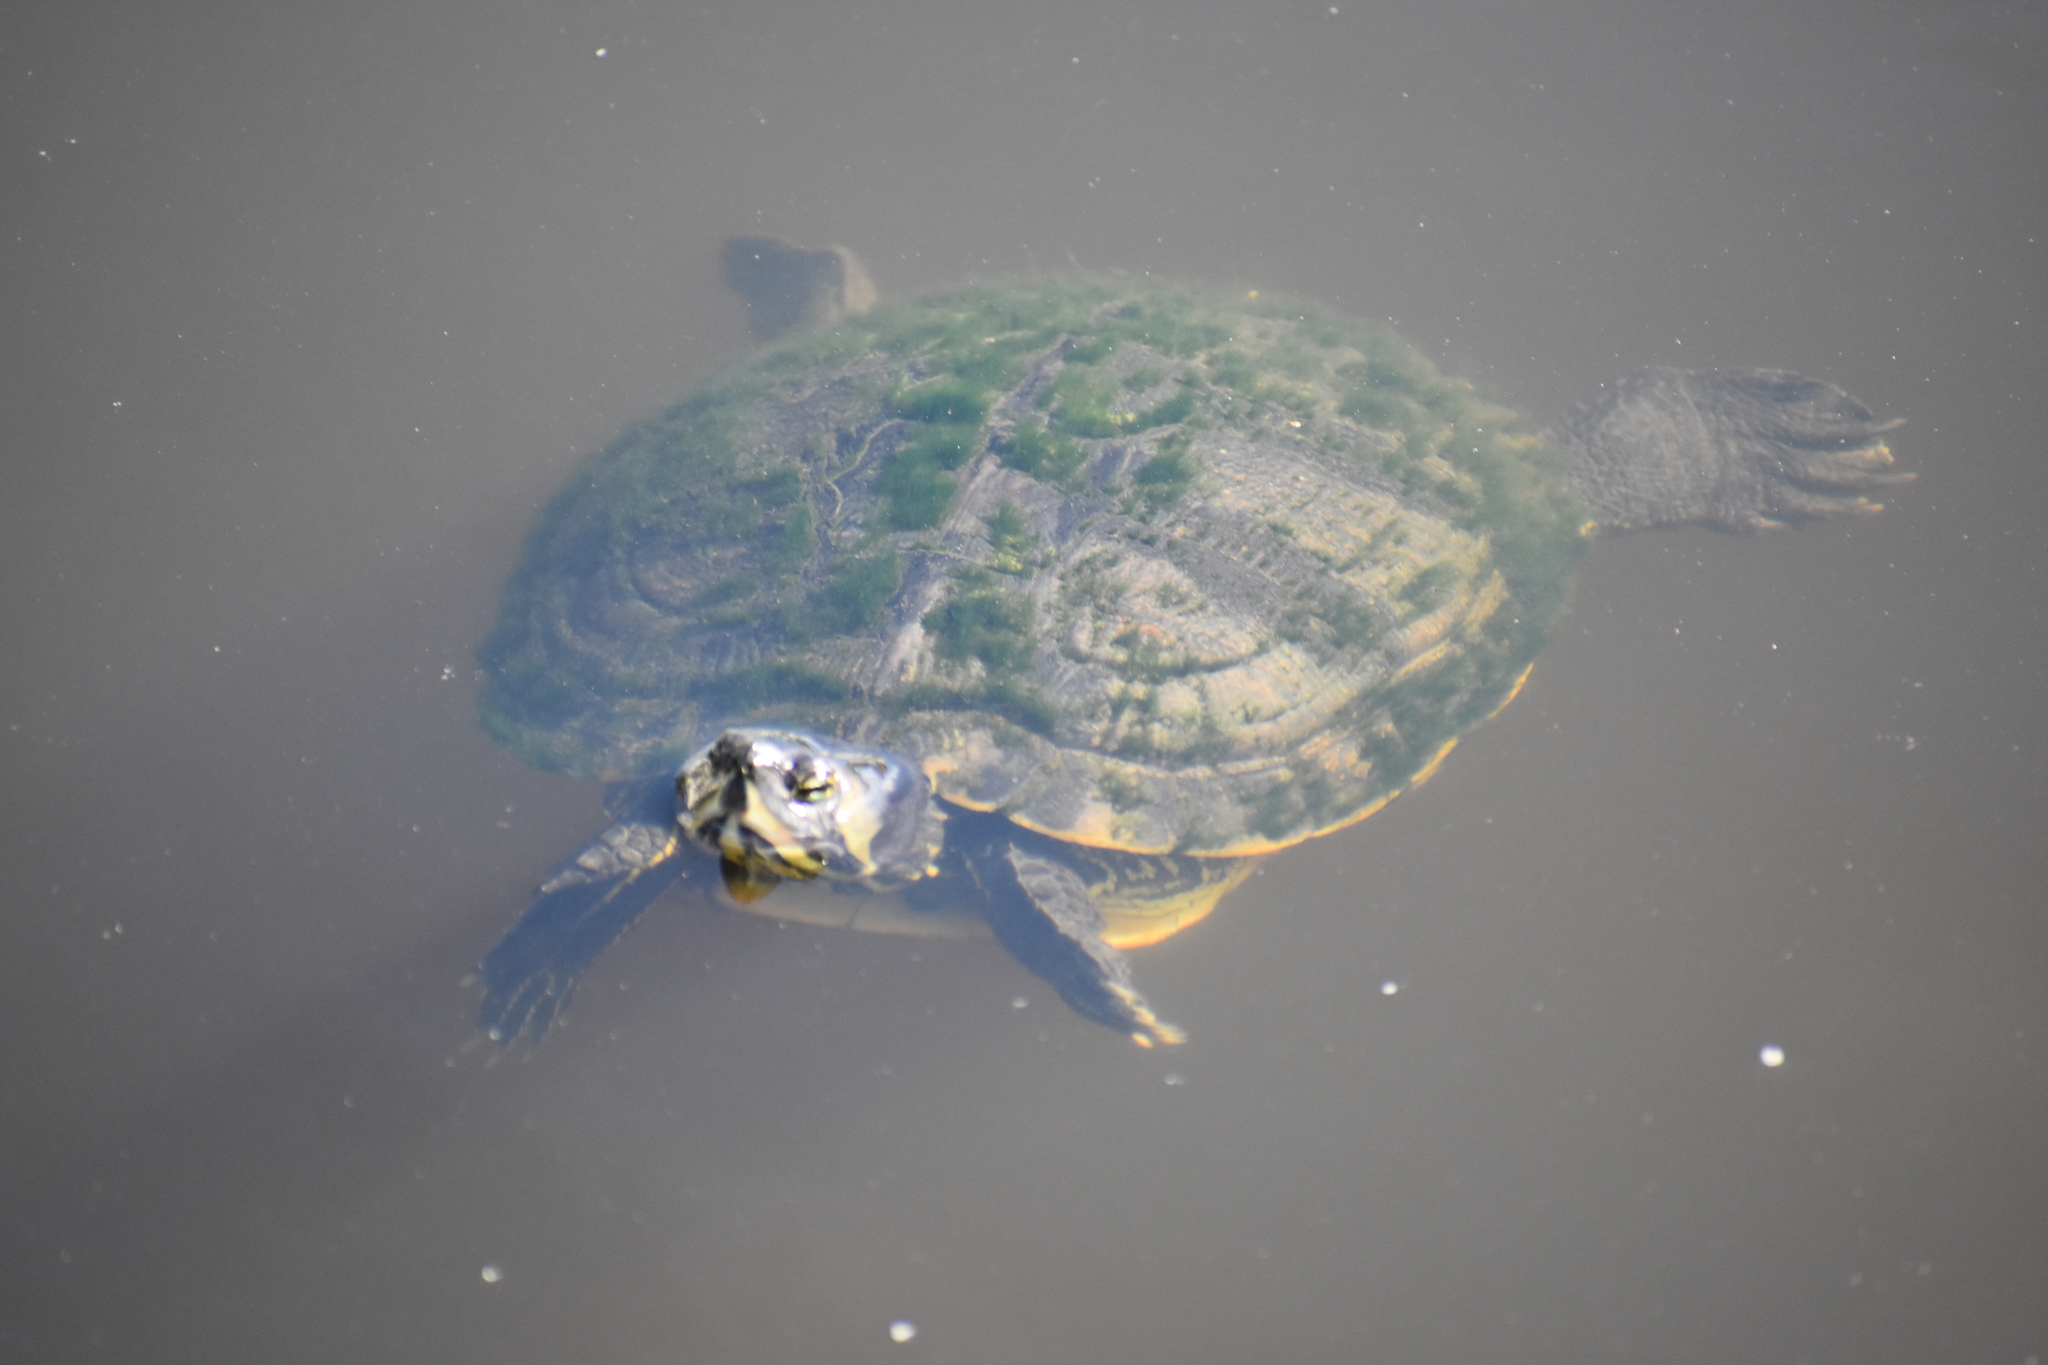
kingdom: Animalia
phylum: Chordata
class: Testudines
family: Emydidae
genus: Trachemys
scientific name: Trachemys scripta
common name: Slider
